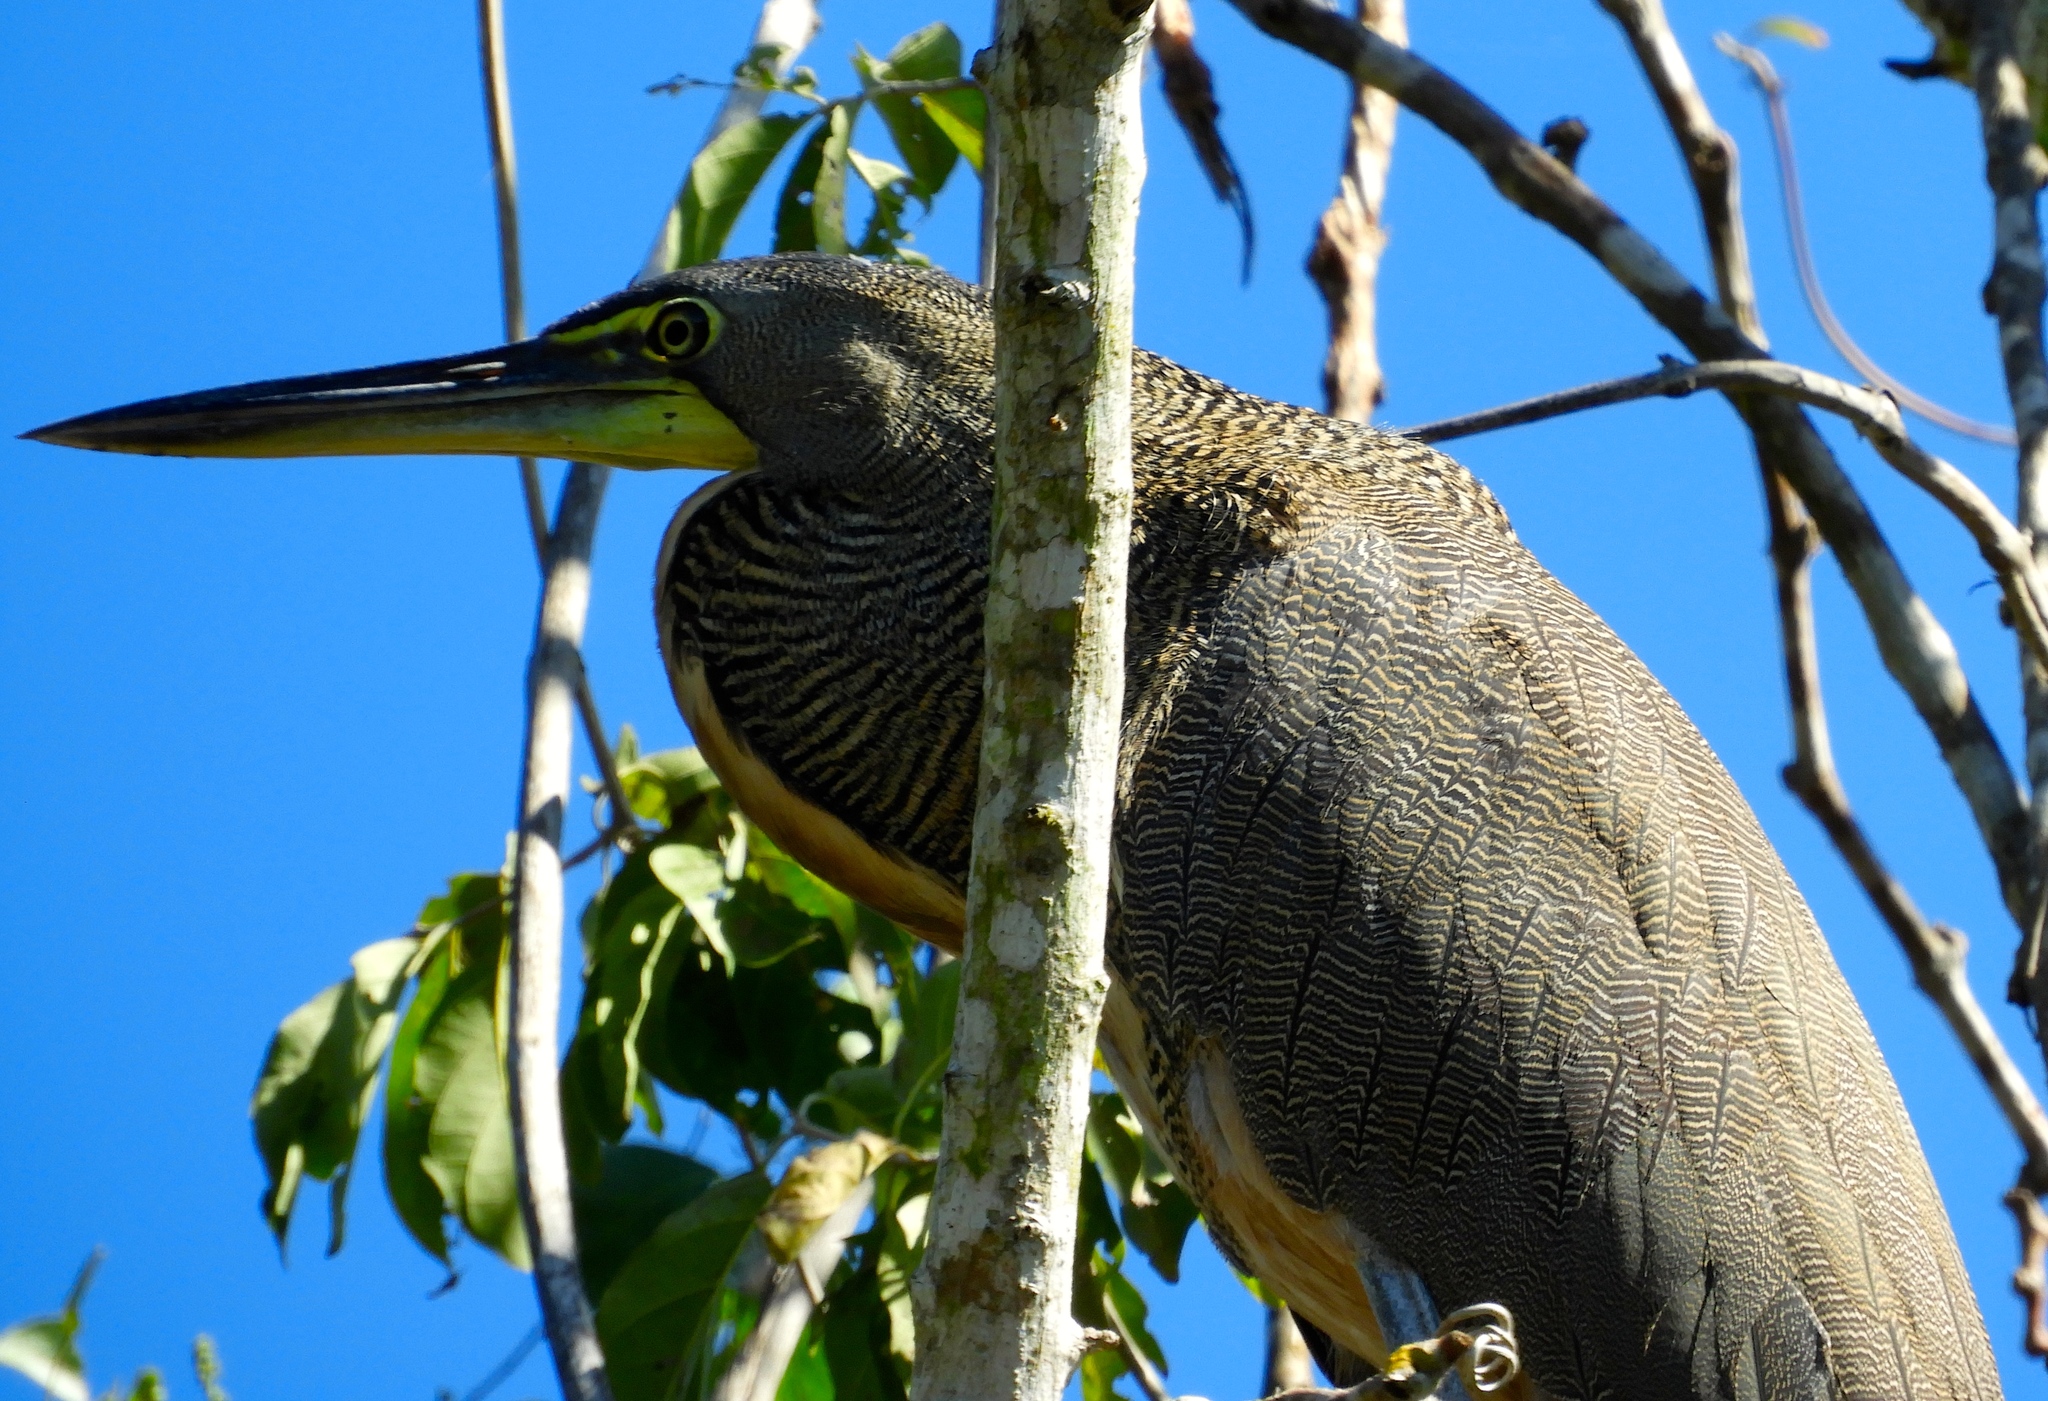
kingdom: Animalia
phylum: Chordata
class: Aves
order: Pelecaniformes
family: Ardeidae
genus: Tigrisoma
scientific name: Tigrisoma mexicanum
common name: Bare-throated tiger-heron
